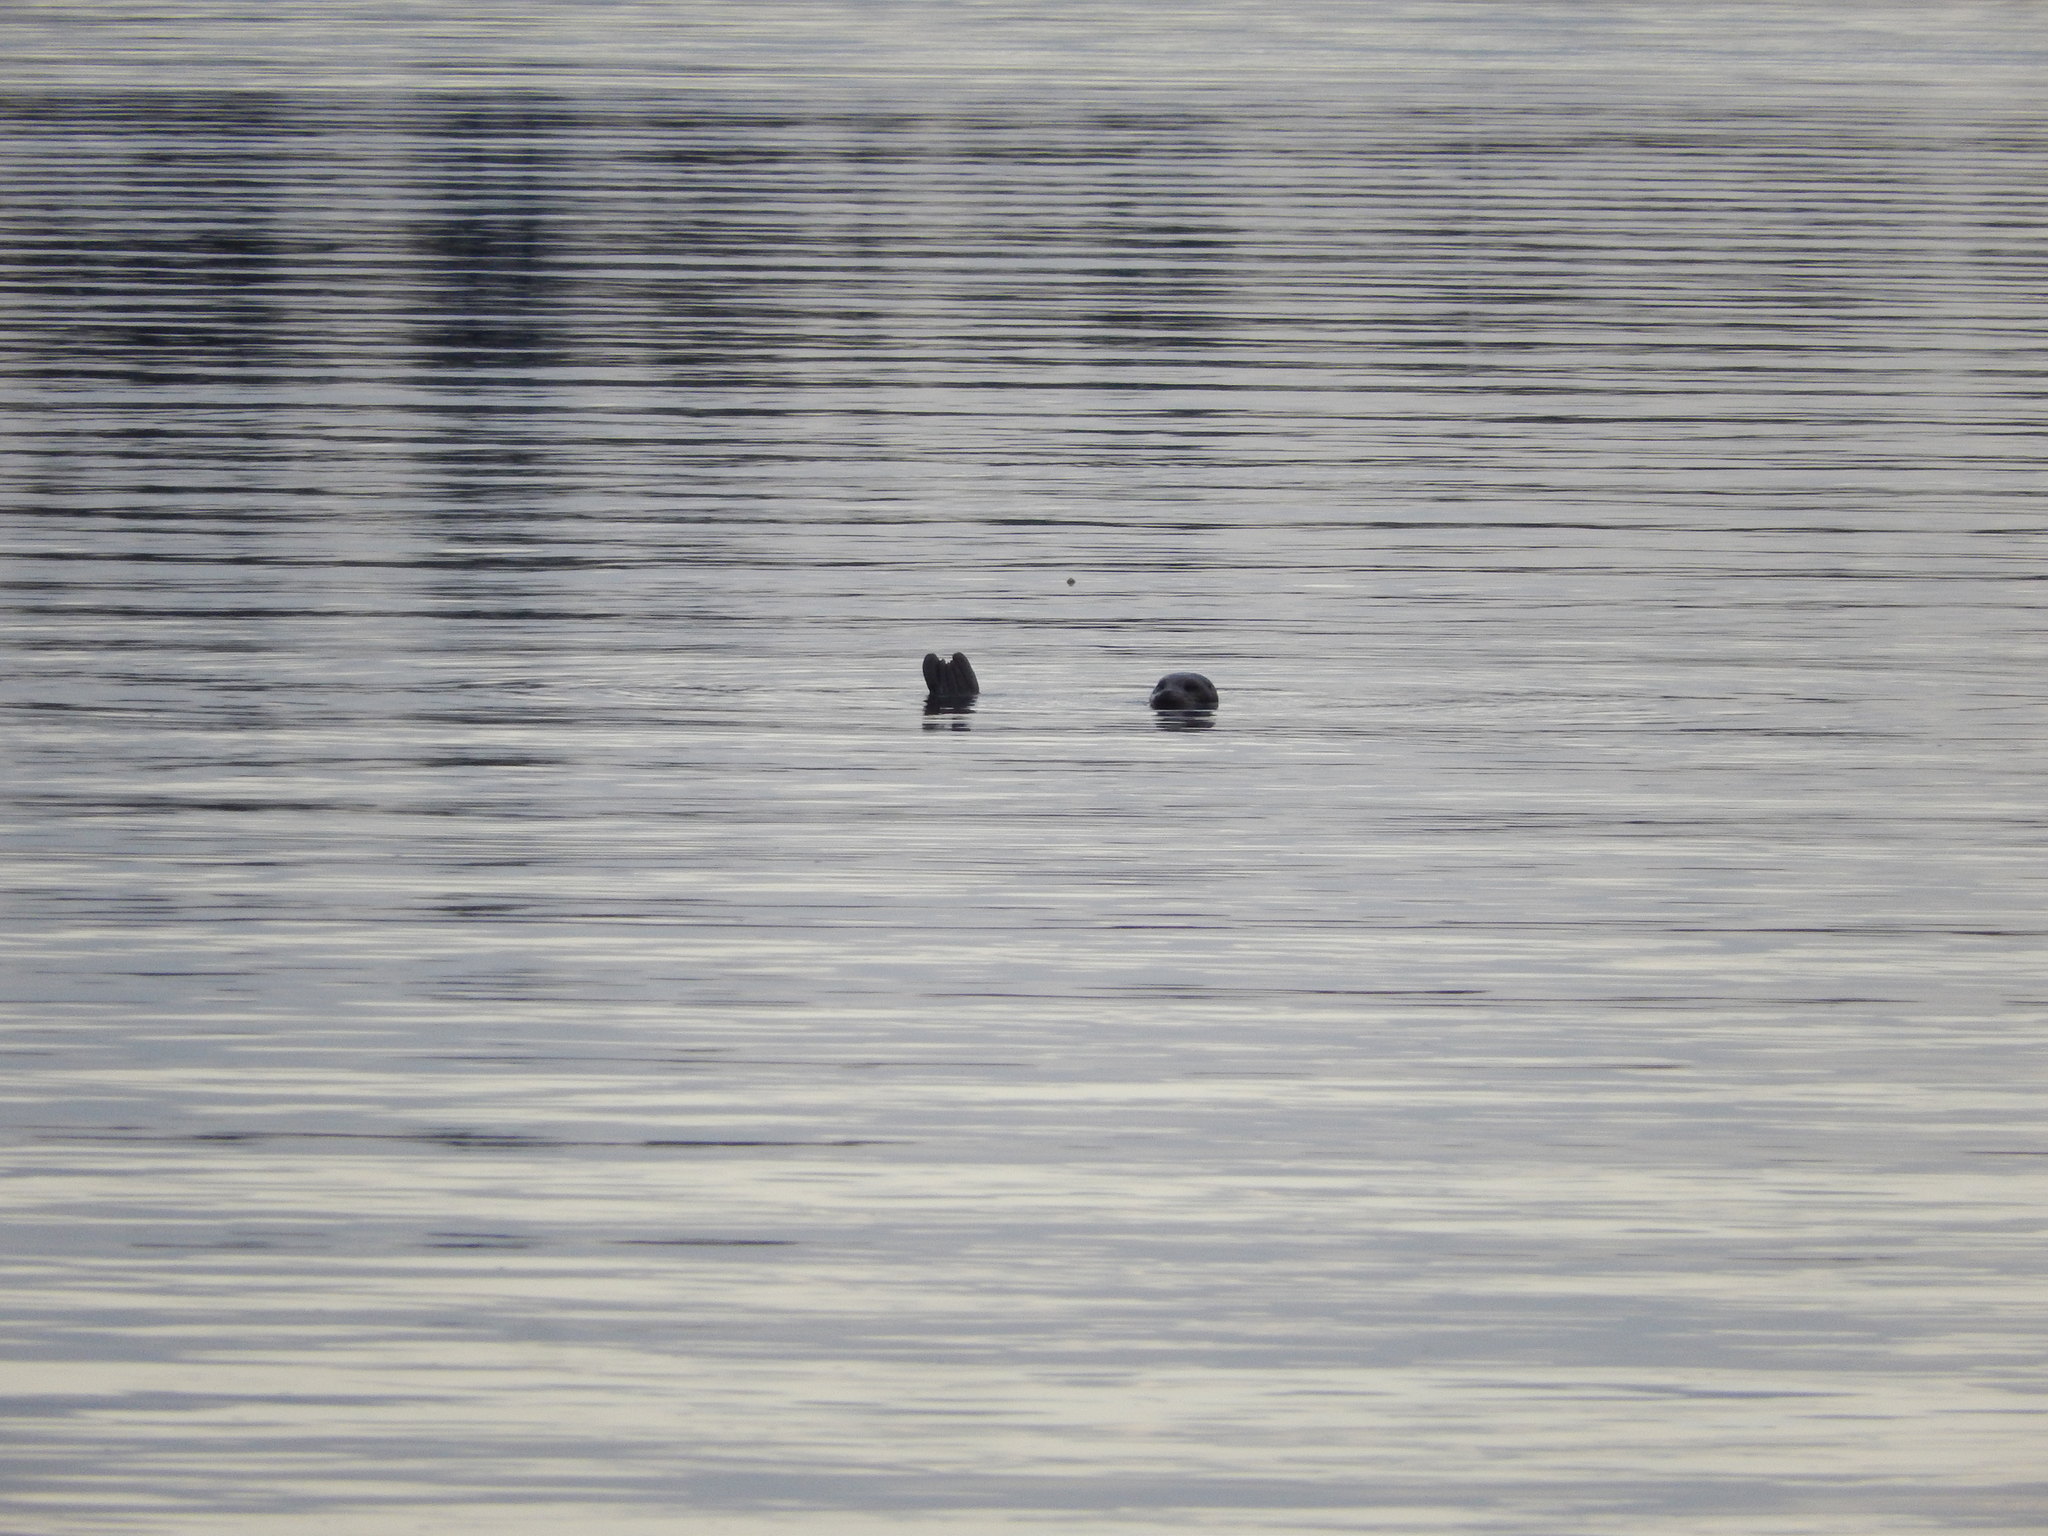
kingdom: Animalia
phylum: Chordata
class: Mammalia
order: Carnivora
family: Phocidae
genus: Phoca
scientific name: Phoca vitulina
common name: Harbor seal
